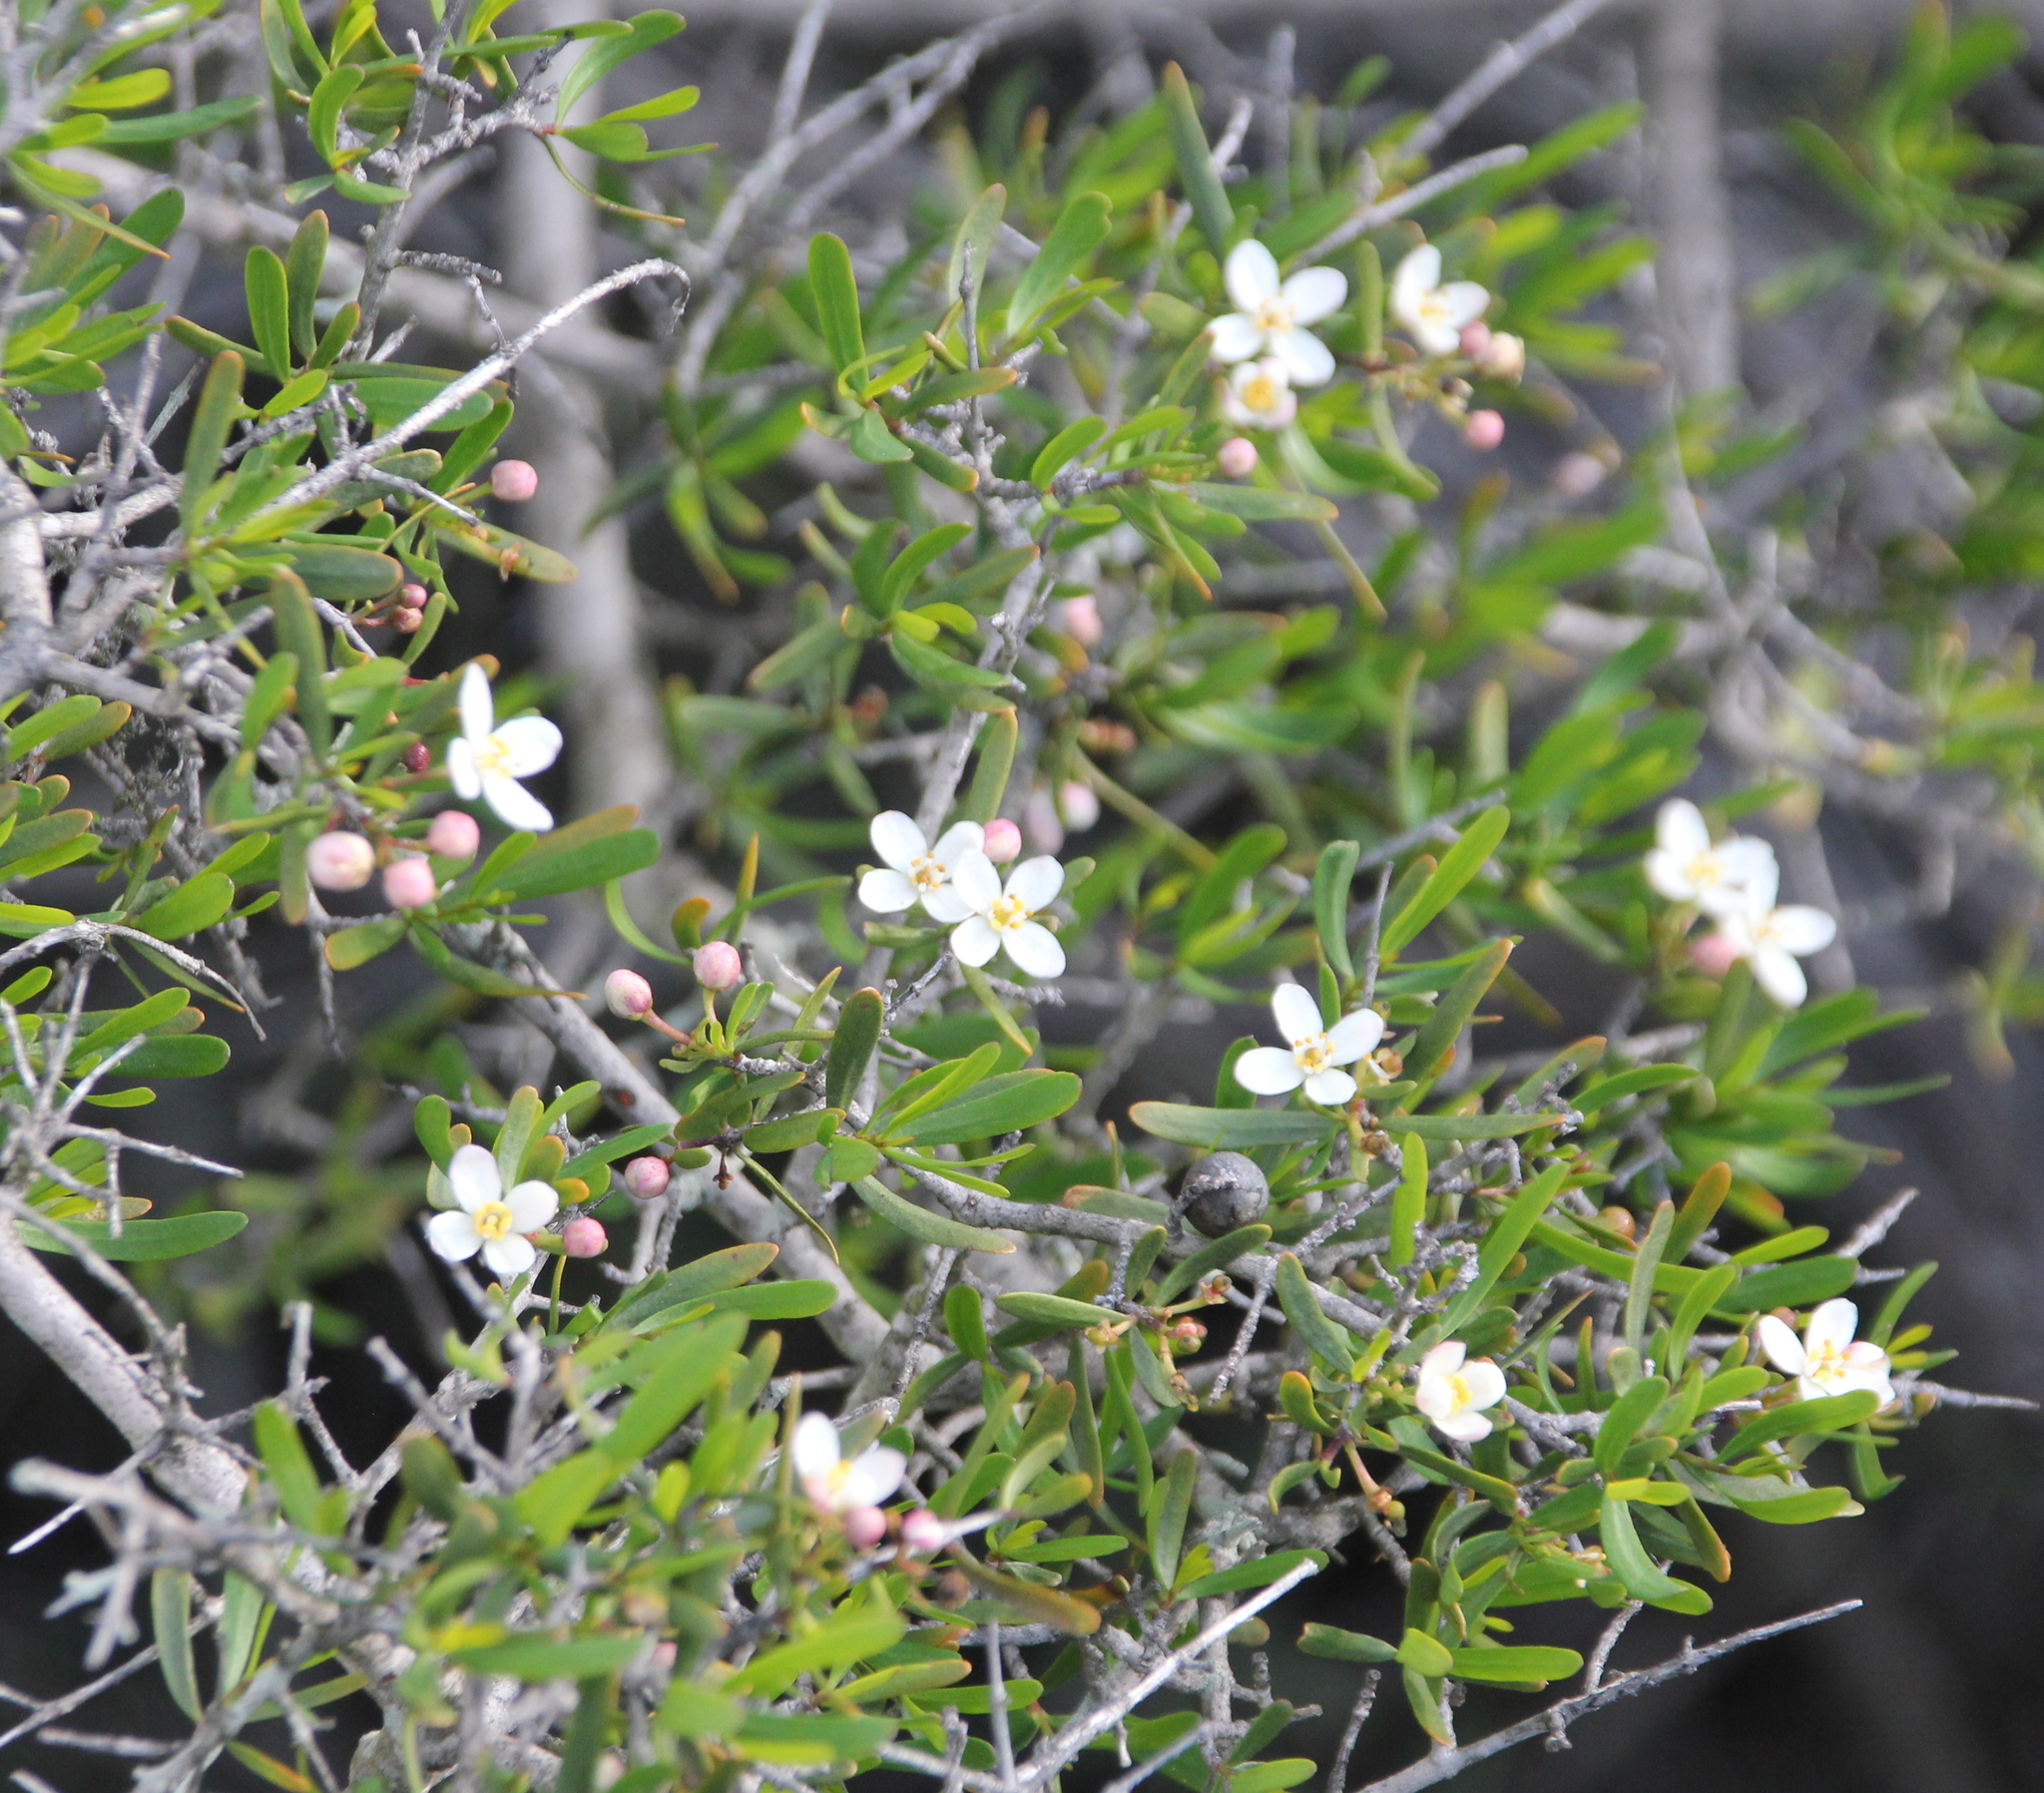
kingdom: Plantae
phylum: Tracheophyta
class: Magnoliopsida
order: Sapindales
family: Rutaceae
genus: Cneoridium
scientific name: Cneoridium dumosum
